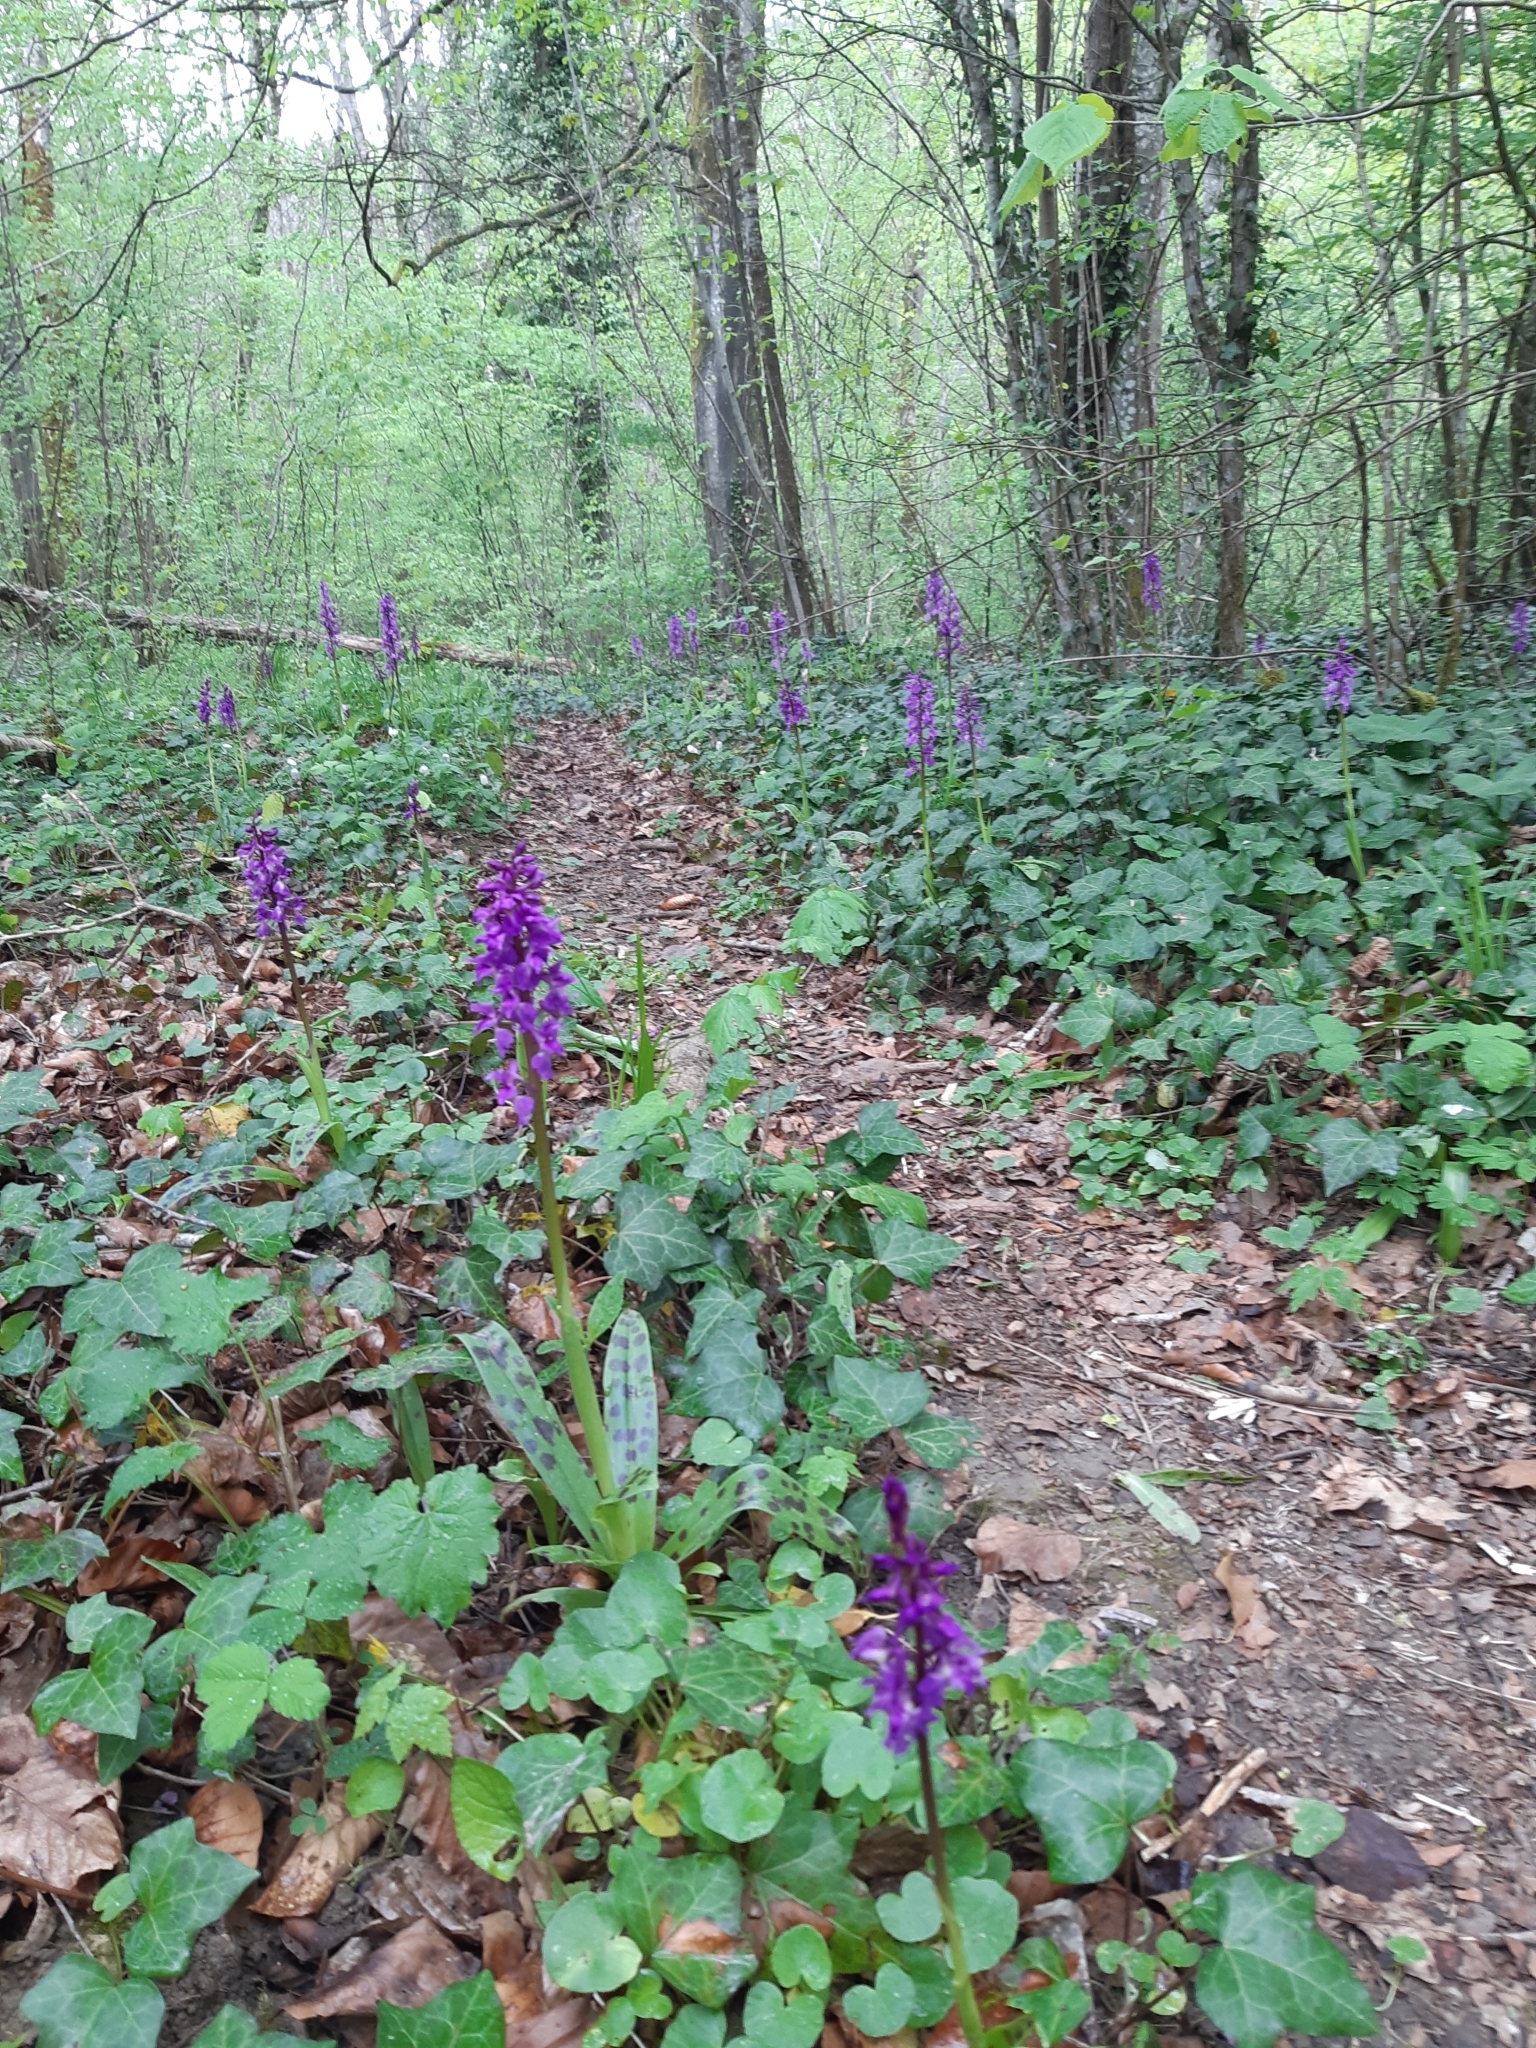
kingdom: Plantae
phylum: Tracheophyta
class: Liliopsida
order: Asparagales
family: Orchidaceae
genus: Orchis
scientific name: Orchis mascula
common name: Early-purple orchid
